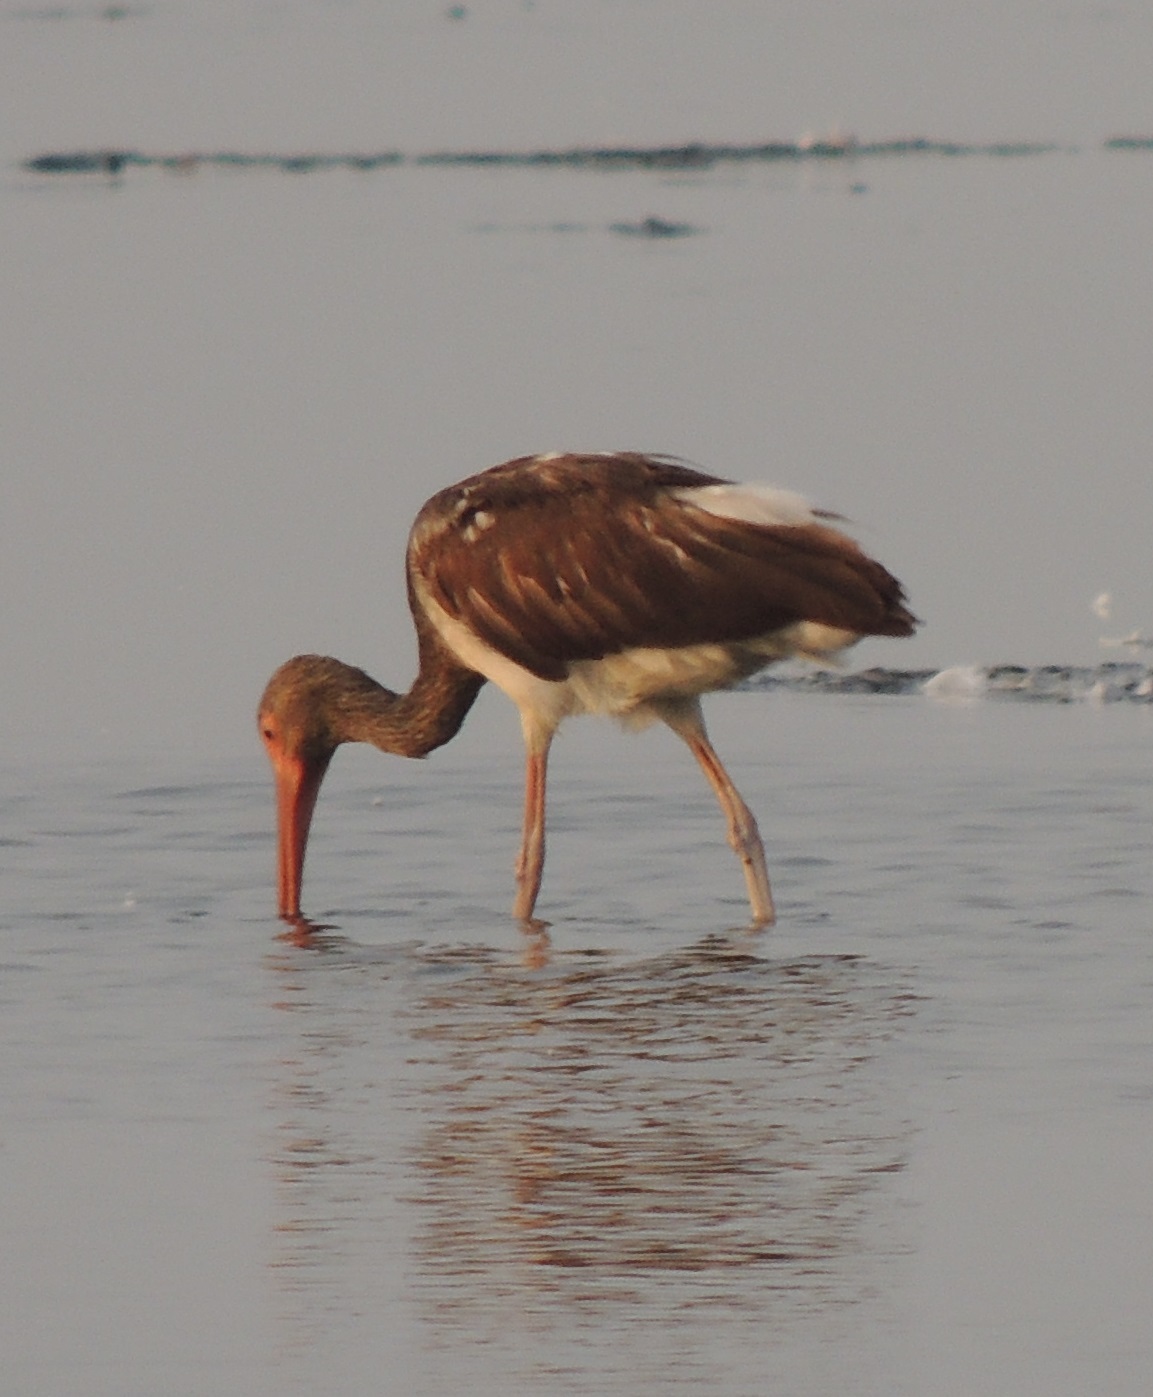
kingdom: Animalia
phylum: Chordata
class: Aves
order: Pelecaniformes
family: Threskiornithidae
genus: Eudocimus
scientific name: Eudocimus albus
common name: White ibis
